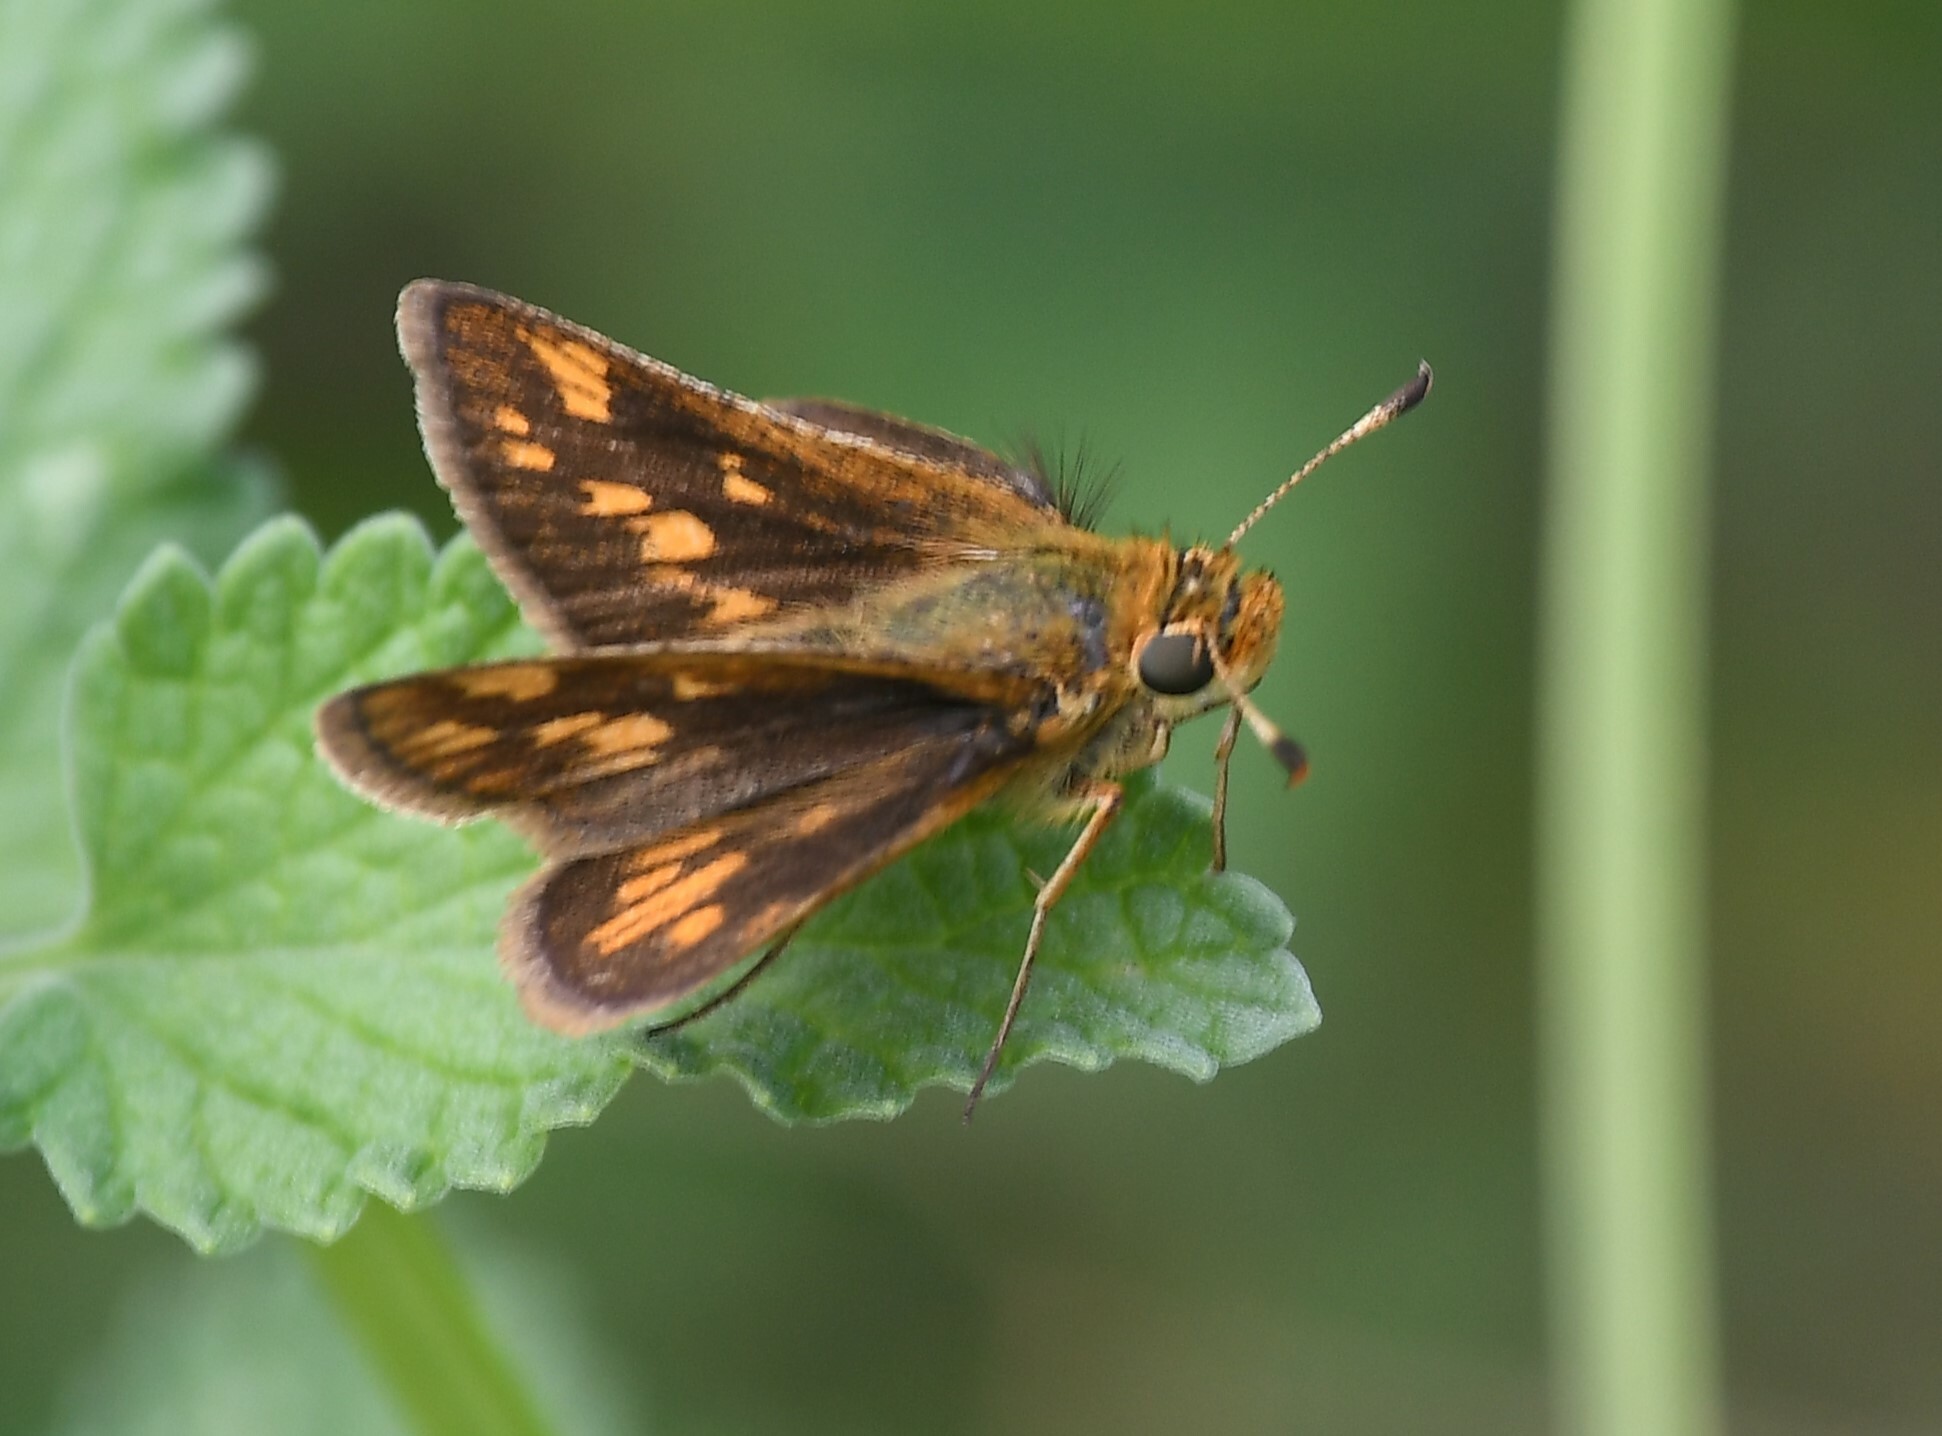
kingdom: Animalia
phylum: Arthropoda
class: Insecta
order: Lepidoptera
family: Hesperiidae
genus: Polites
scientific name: Polites coras
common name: Peck's skipper
